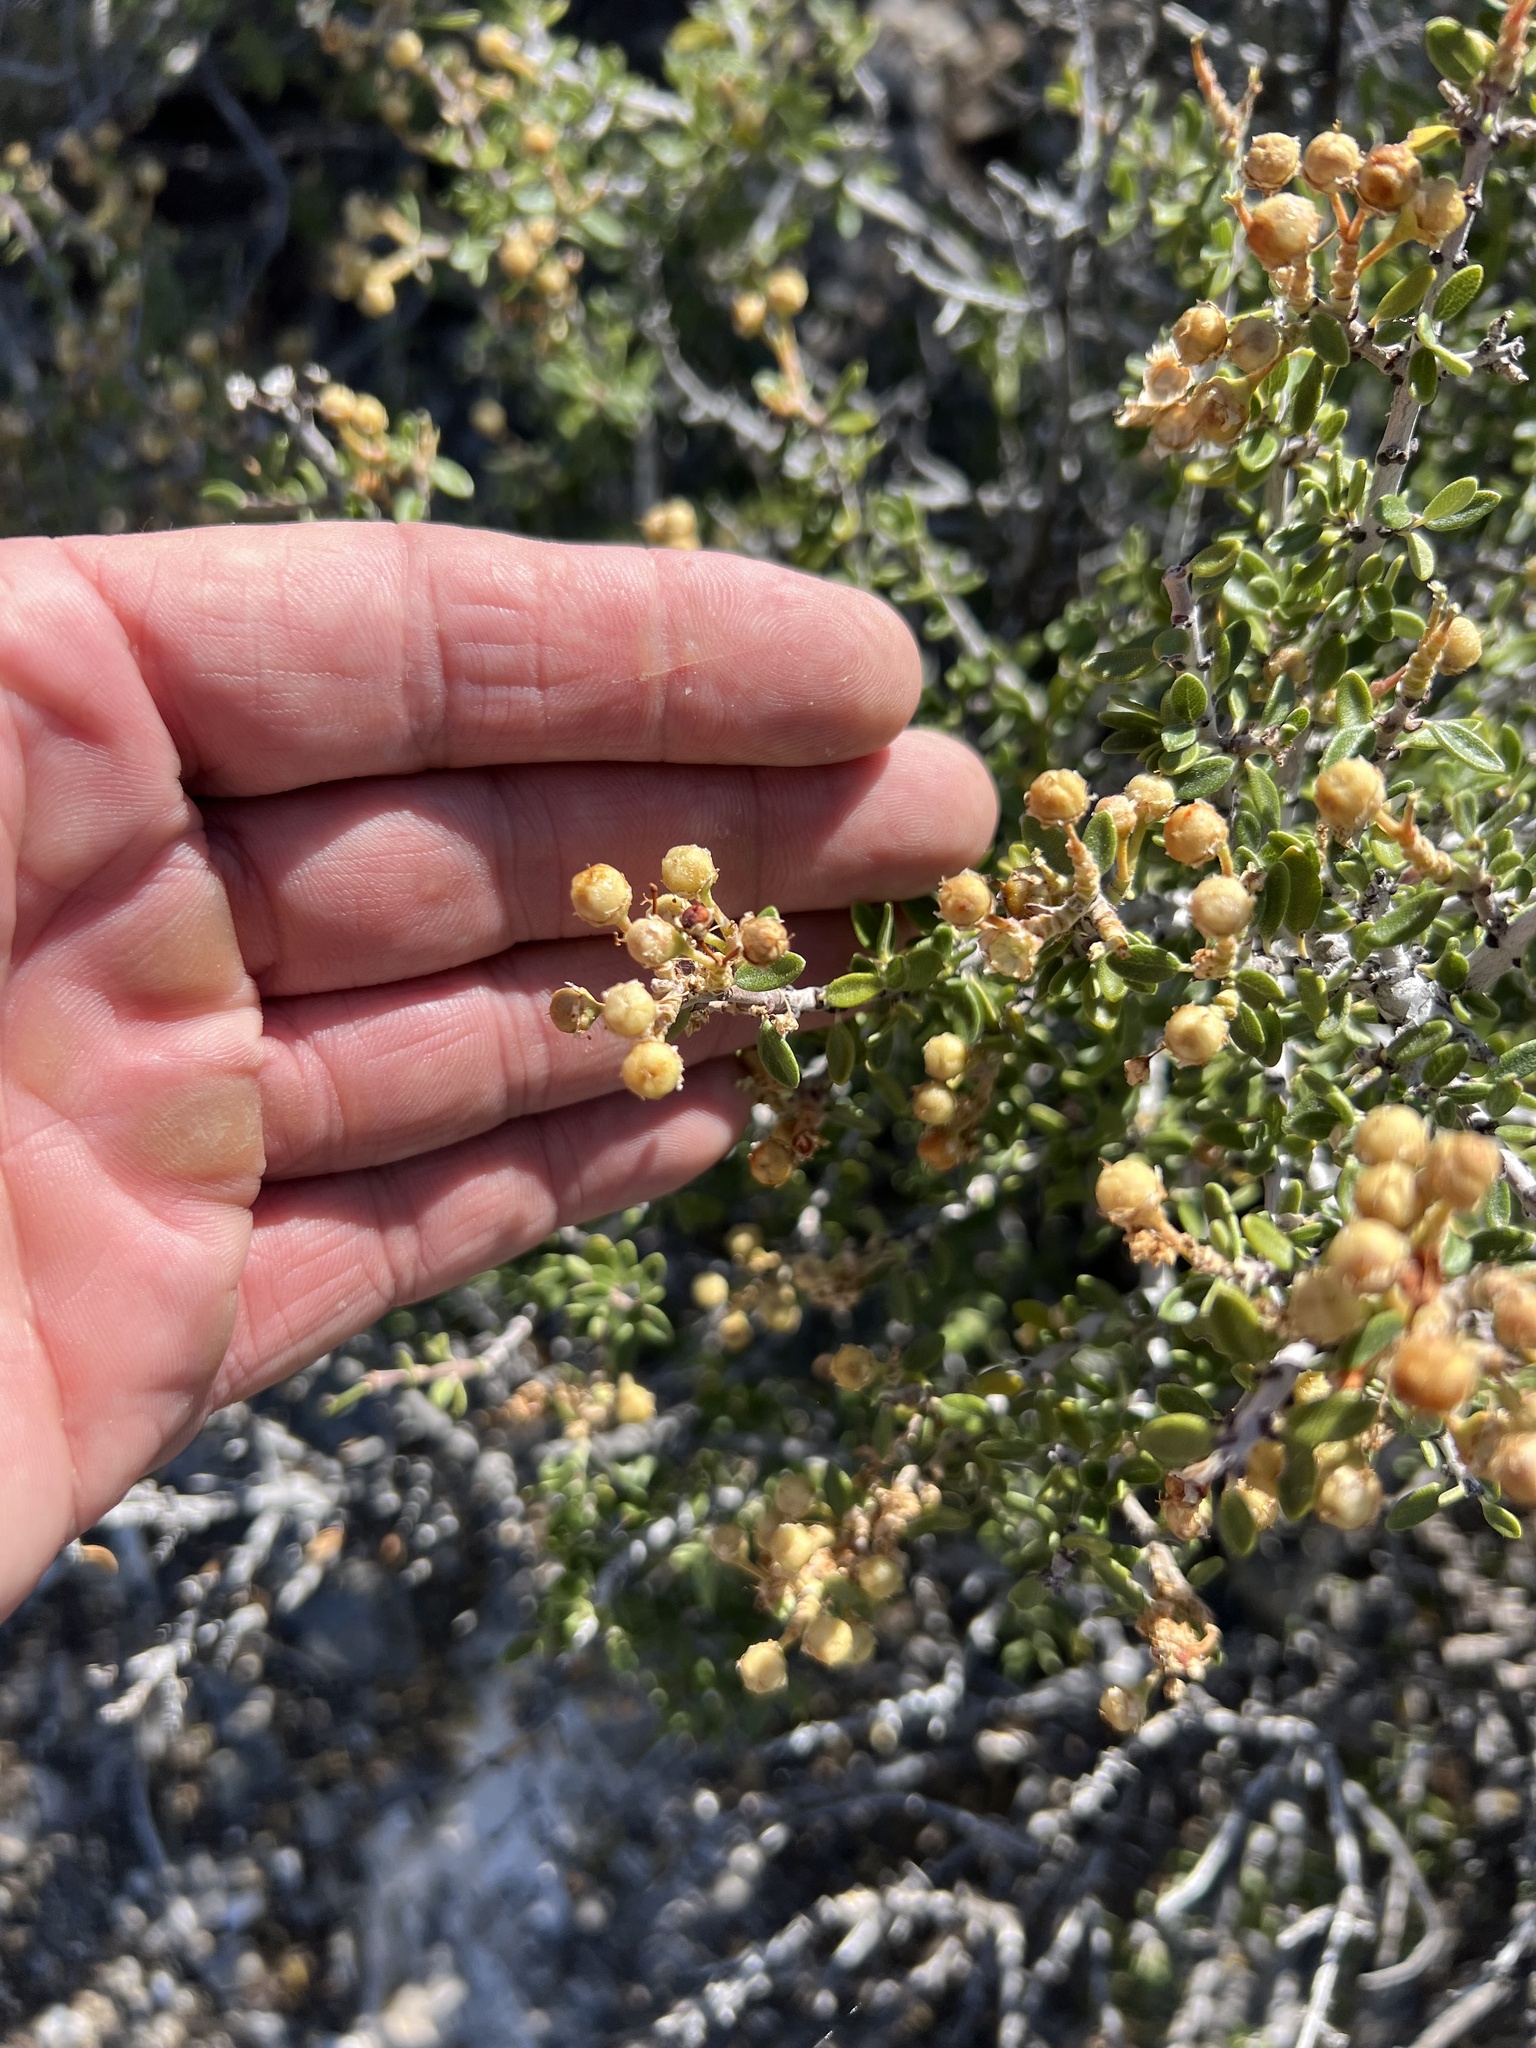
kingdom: Plantae
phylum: Tracheophyta
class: Magnoliopsida
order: Rosales
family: Rhamnaceae
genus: Ceanothus
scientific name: Ceanothus pauciflorus
